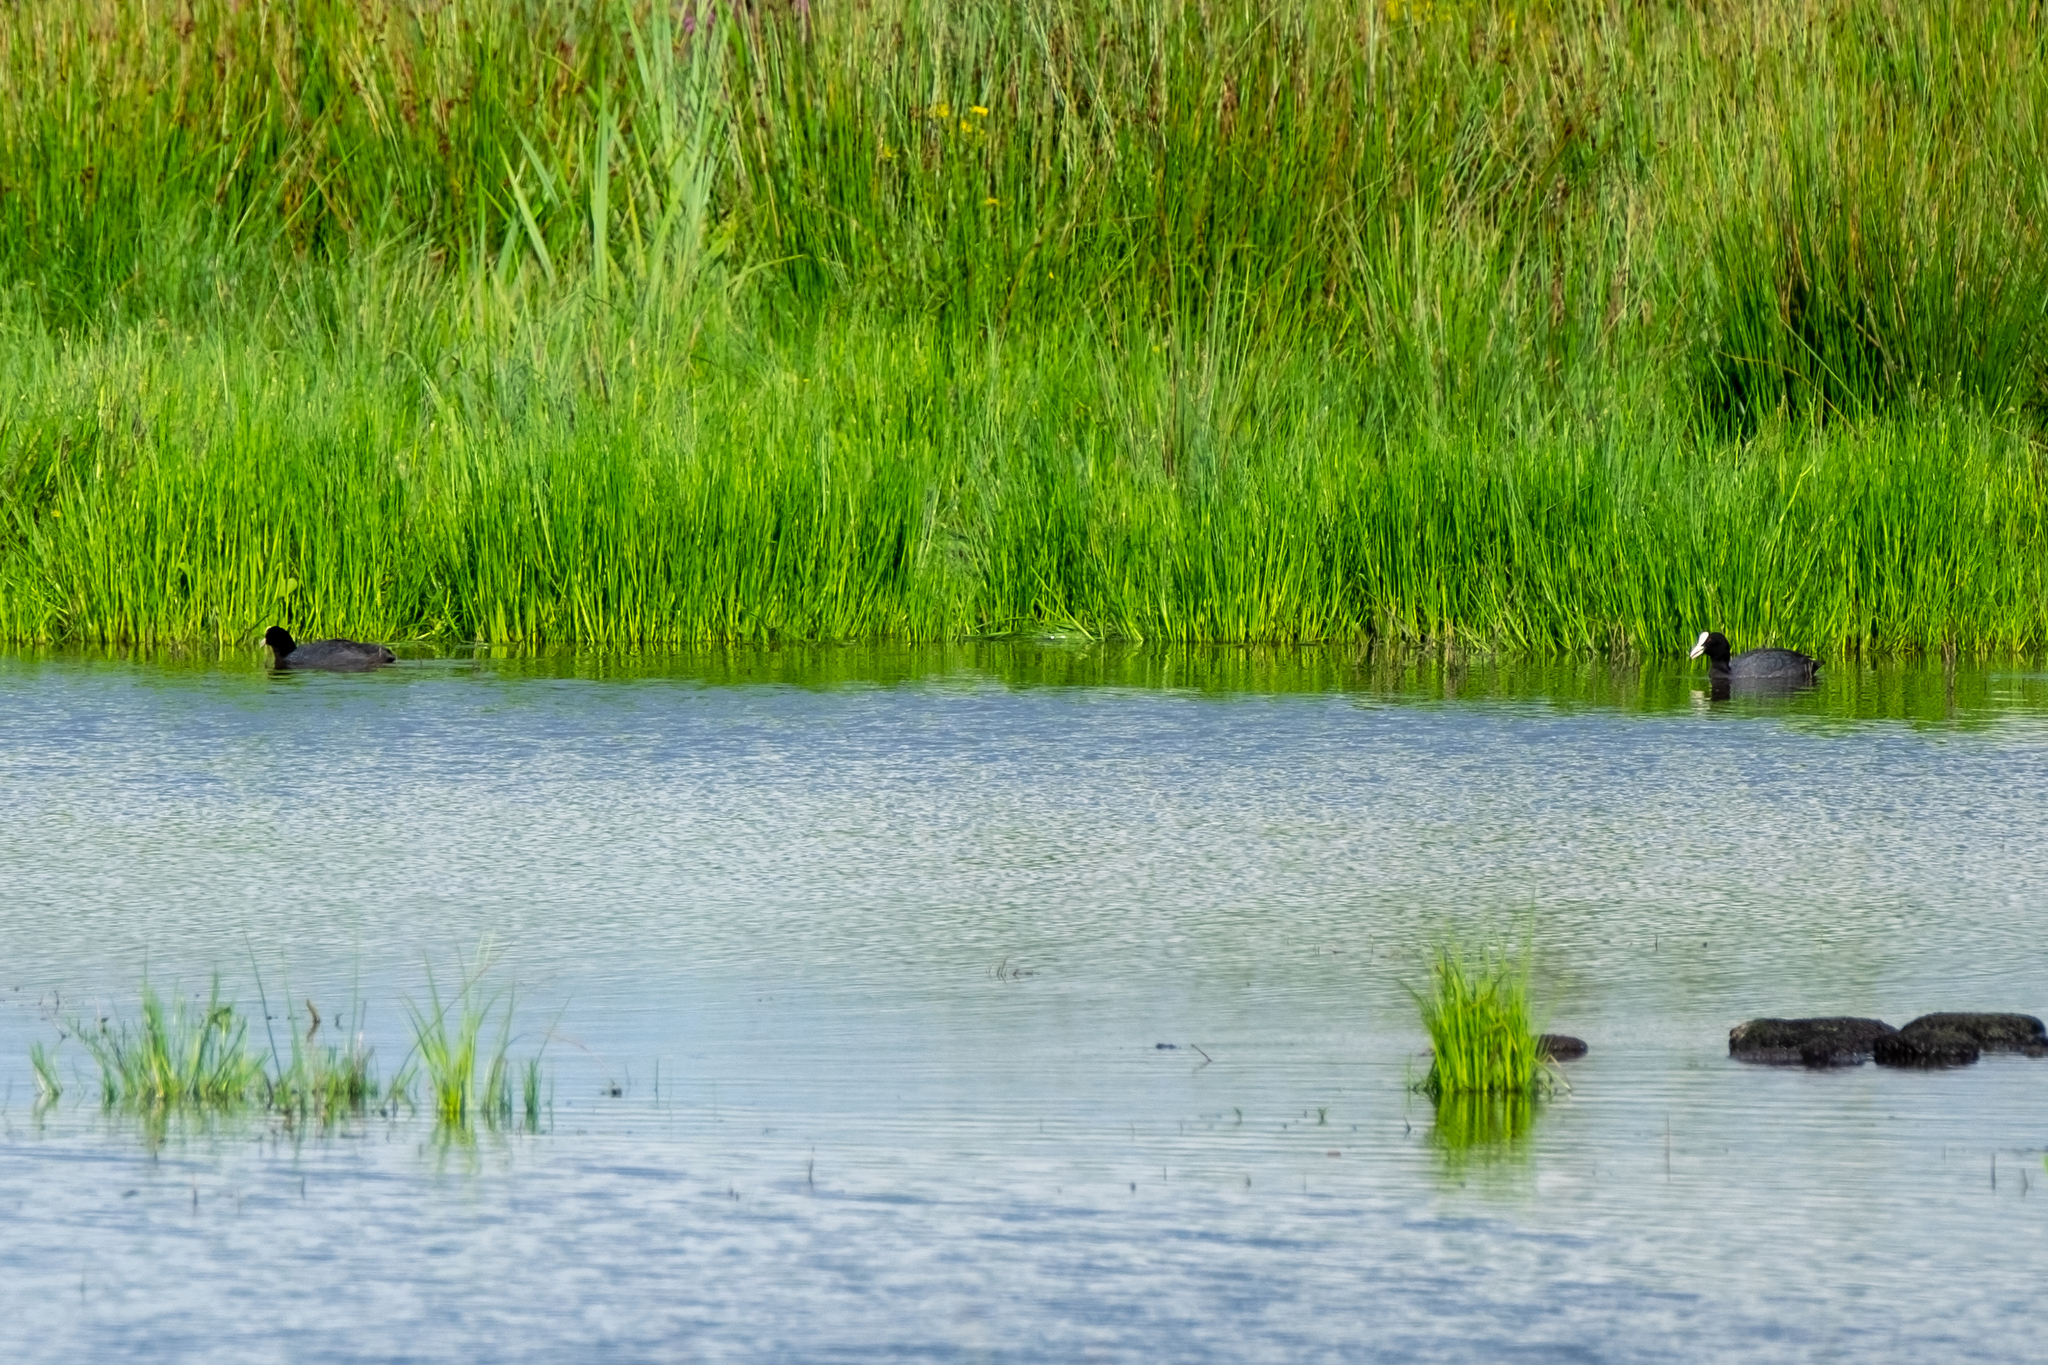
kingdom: Animalia
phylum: Chordata
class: Aves
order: Gruiformes
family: Rallidae
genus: Fulica
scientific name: Fulica atra
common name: Eurasian coot
